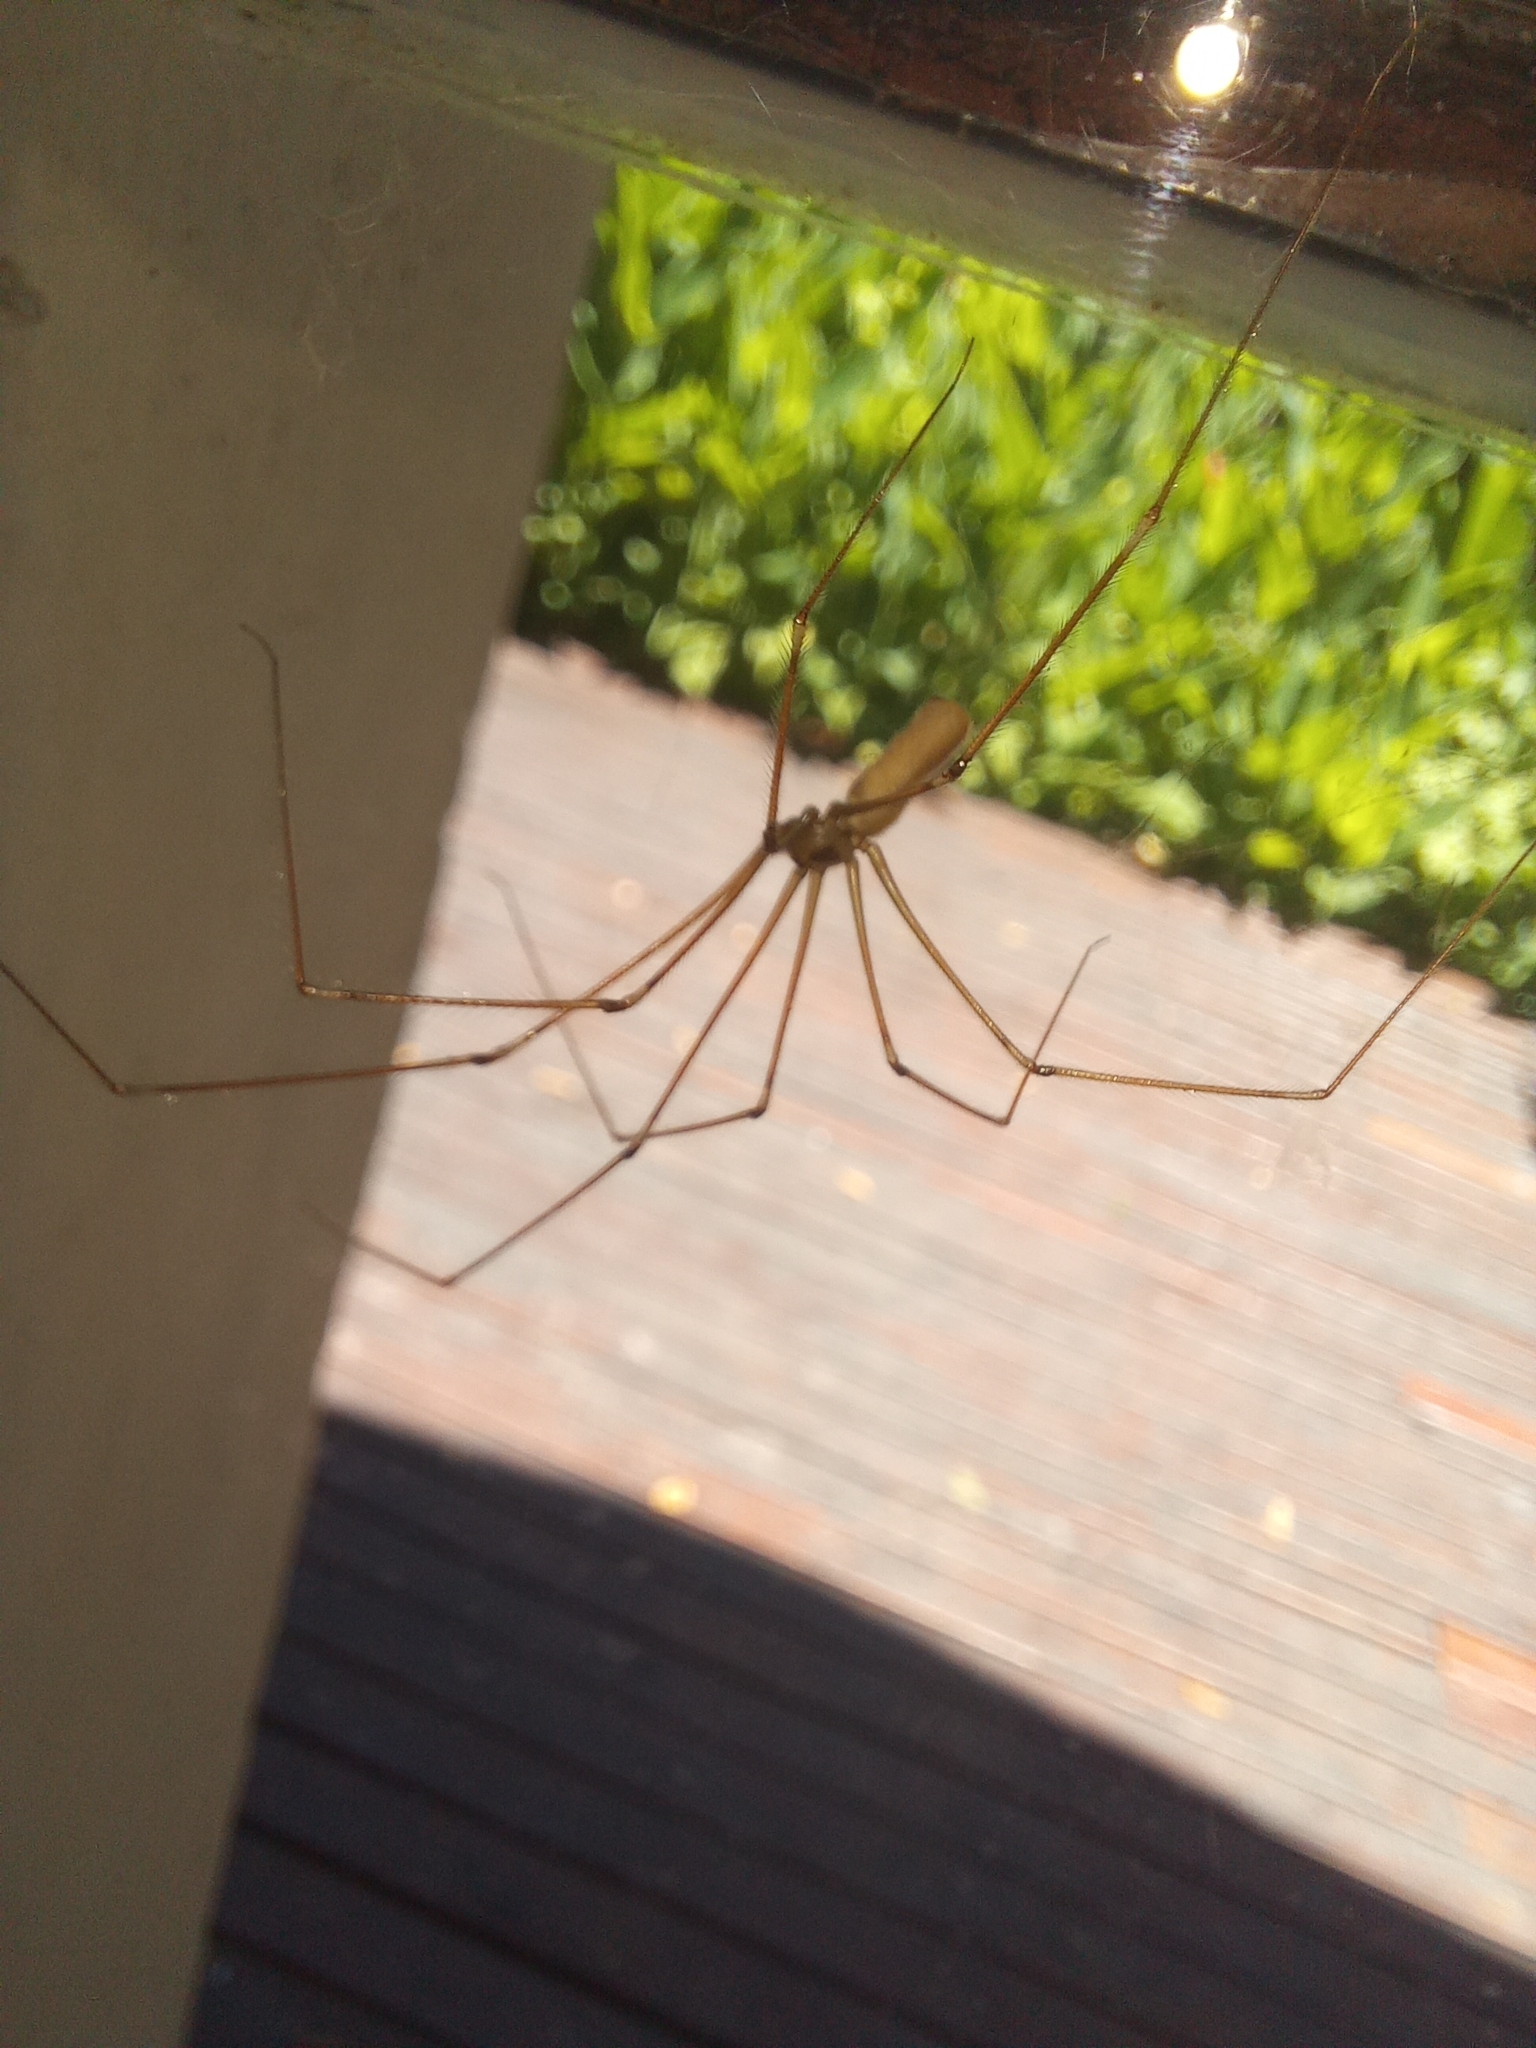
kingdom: Animalia
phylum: Arthropoda
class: Arachnida
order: Araneae
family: Pholcidae
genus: Pholcus
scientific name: Pholcus phalangioides
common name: Longbodied cellar spider
